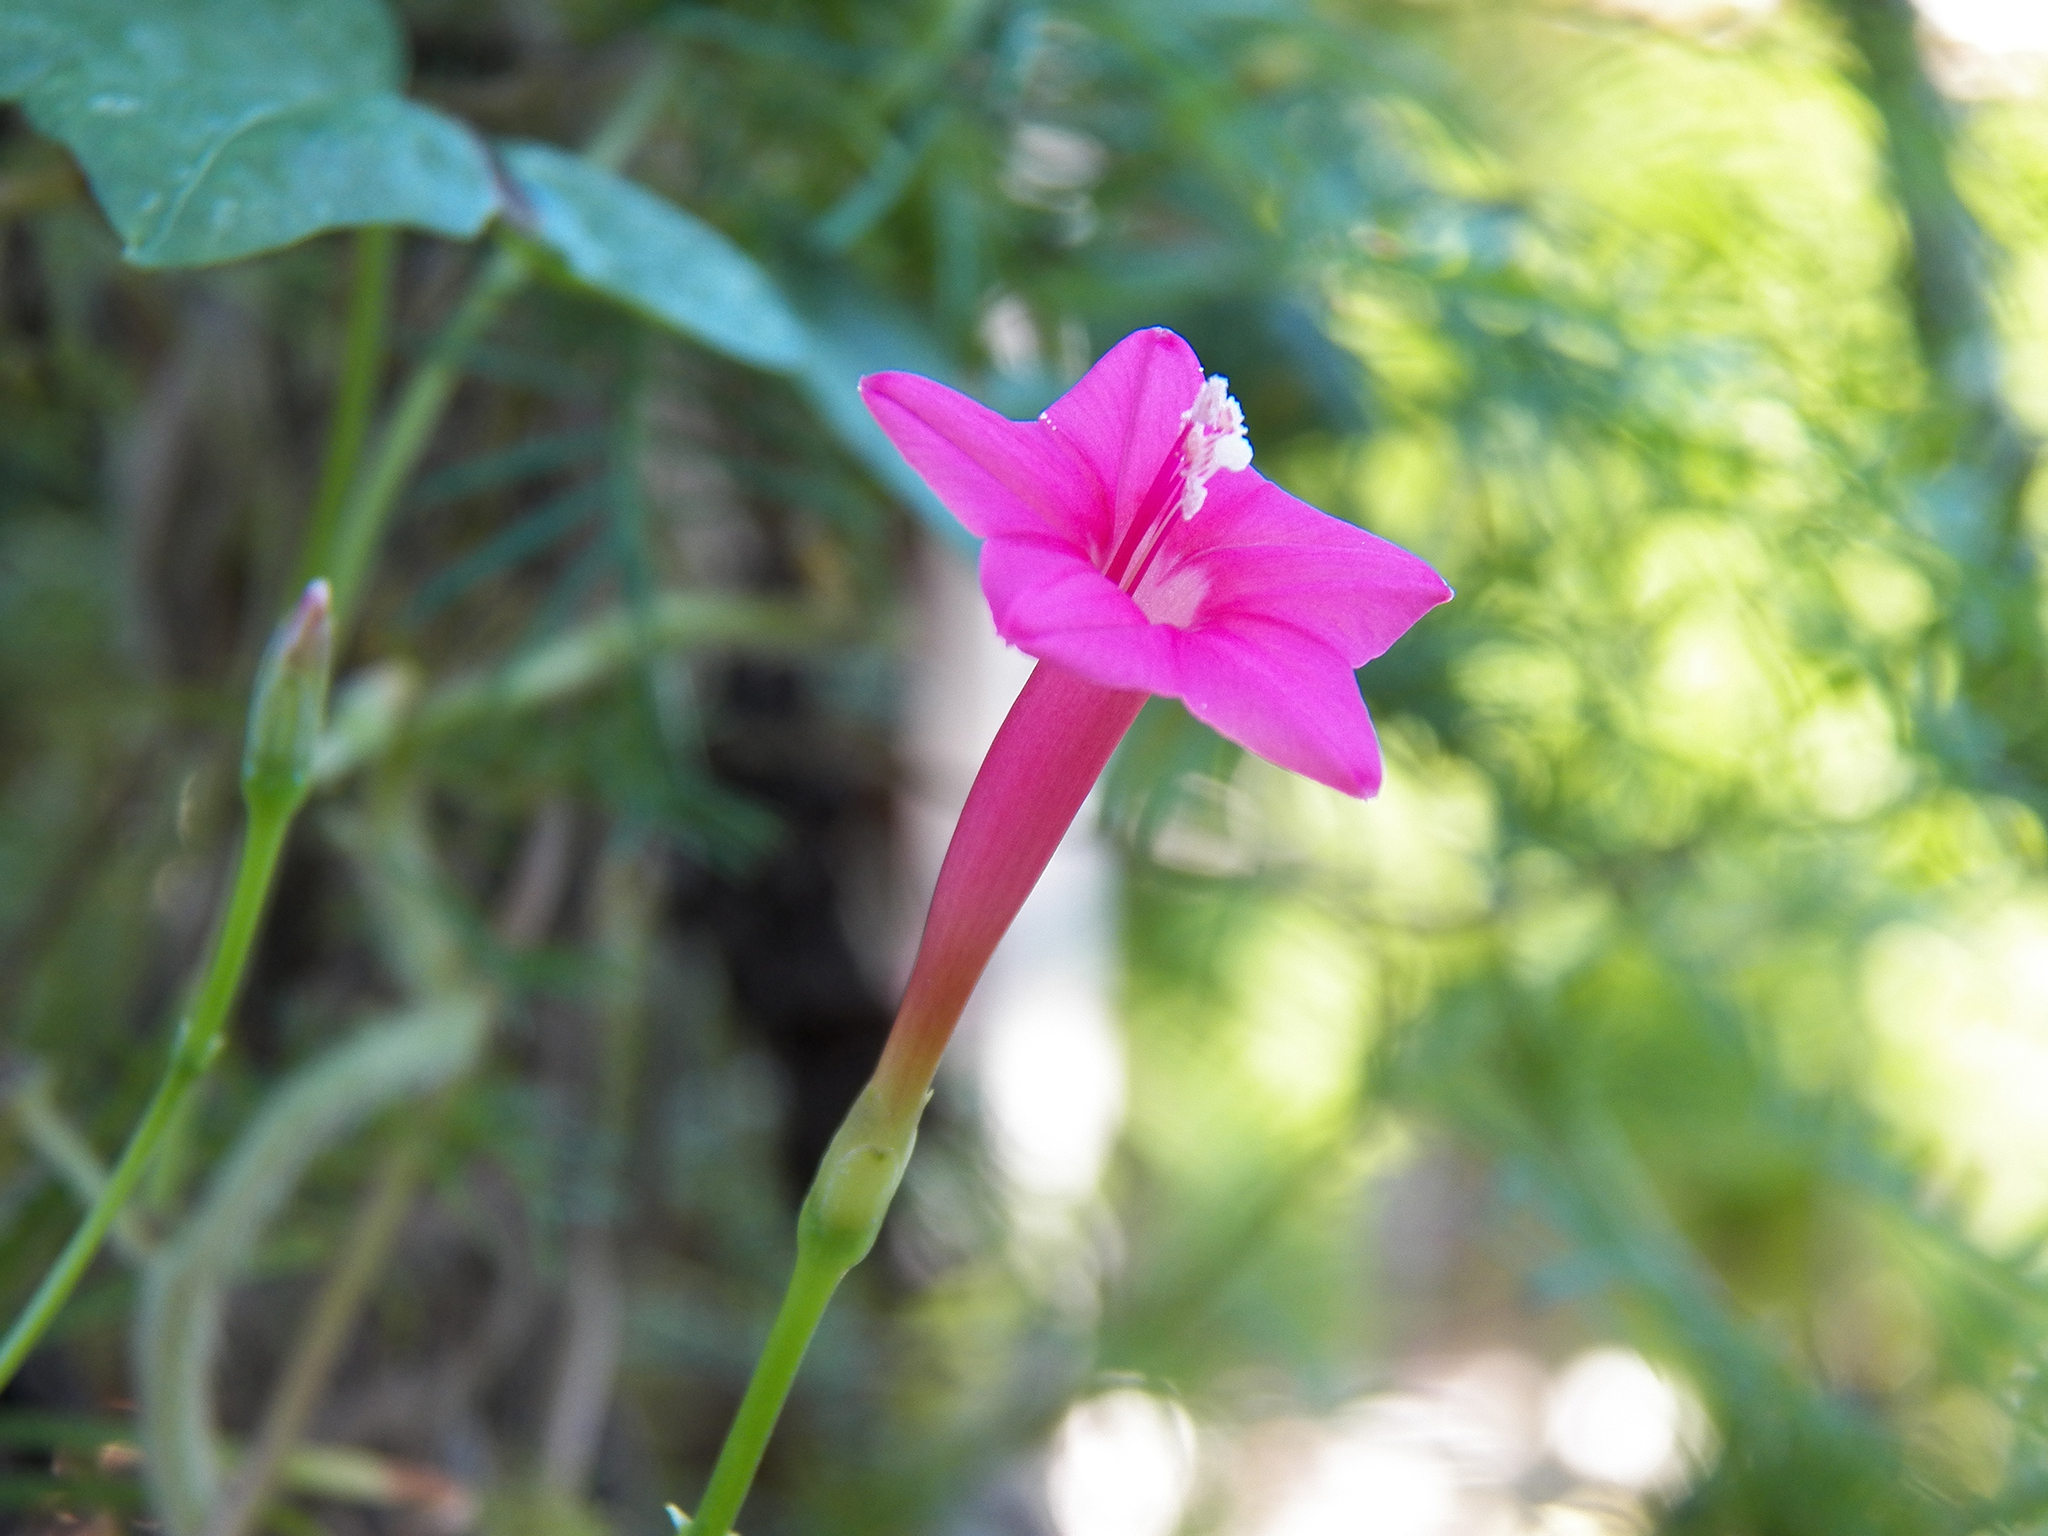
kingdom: Plantae
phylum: Tracheophyta
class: Magnoliopsida
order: Solanales
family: Convolvulaceae
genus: Ipomoea
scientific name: Ipomoea quamoclit
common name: Cypress vine
